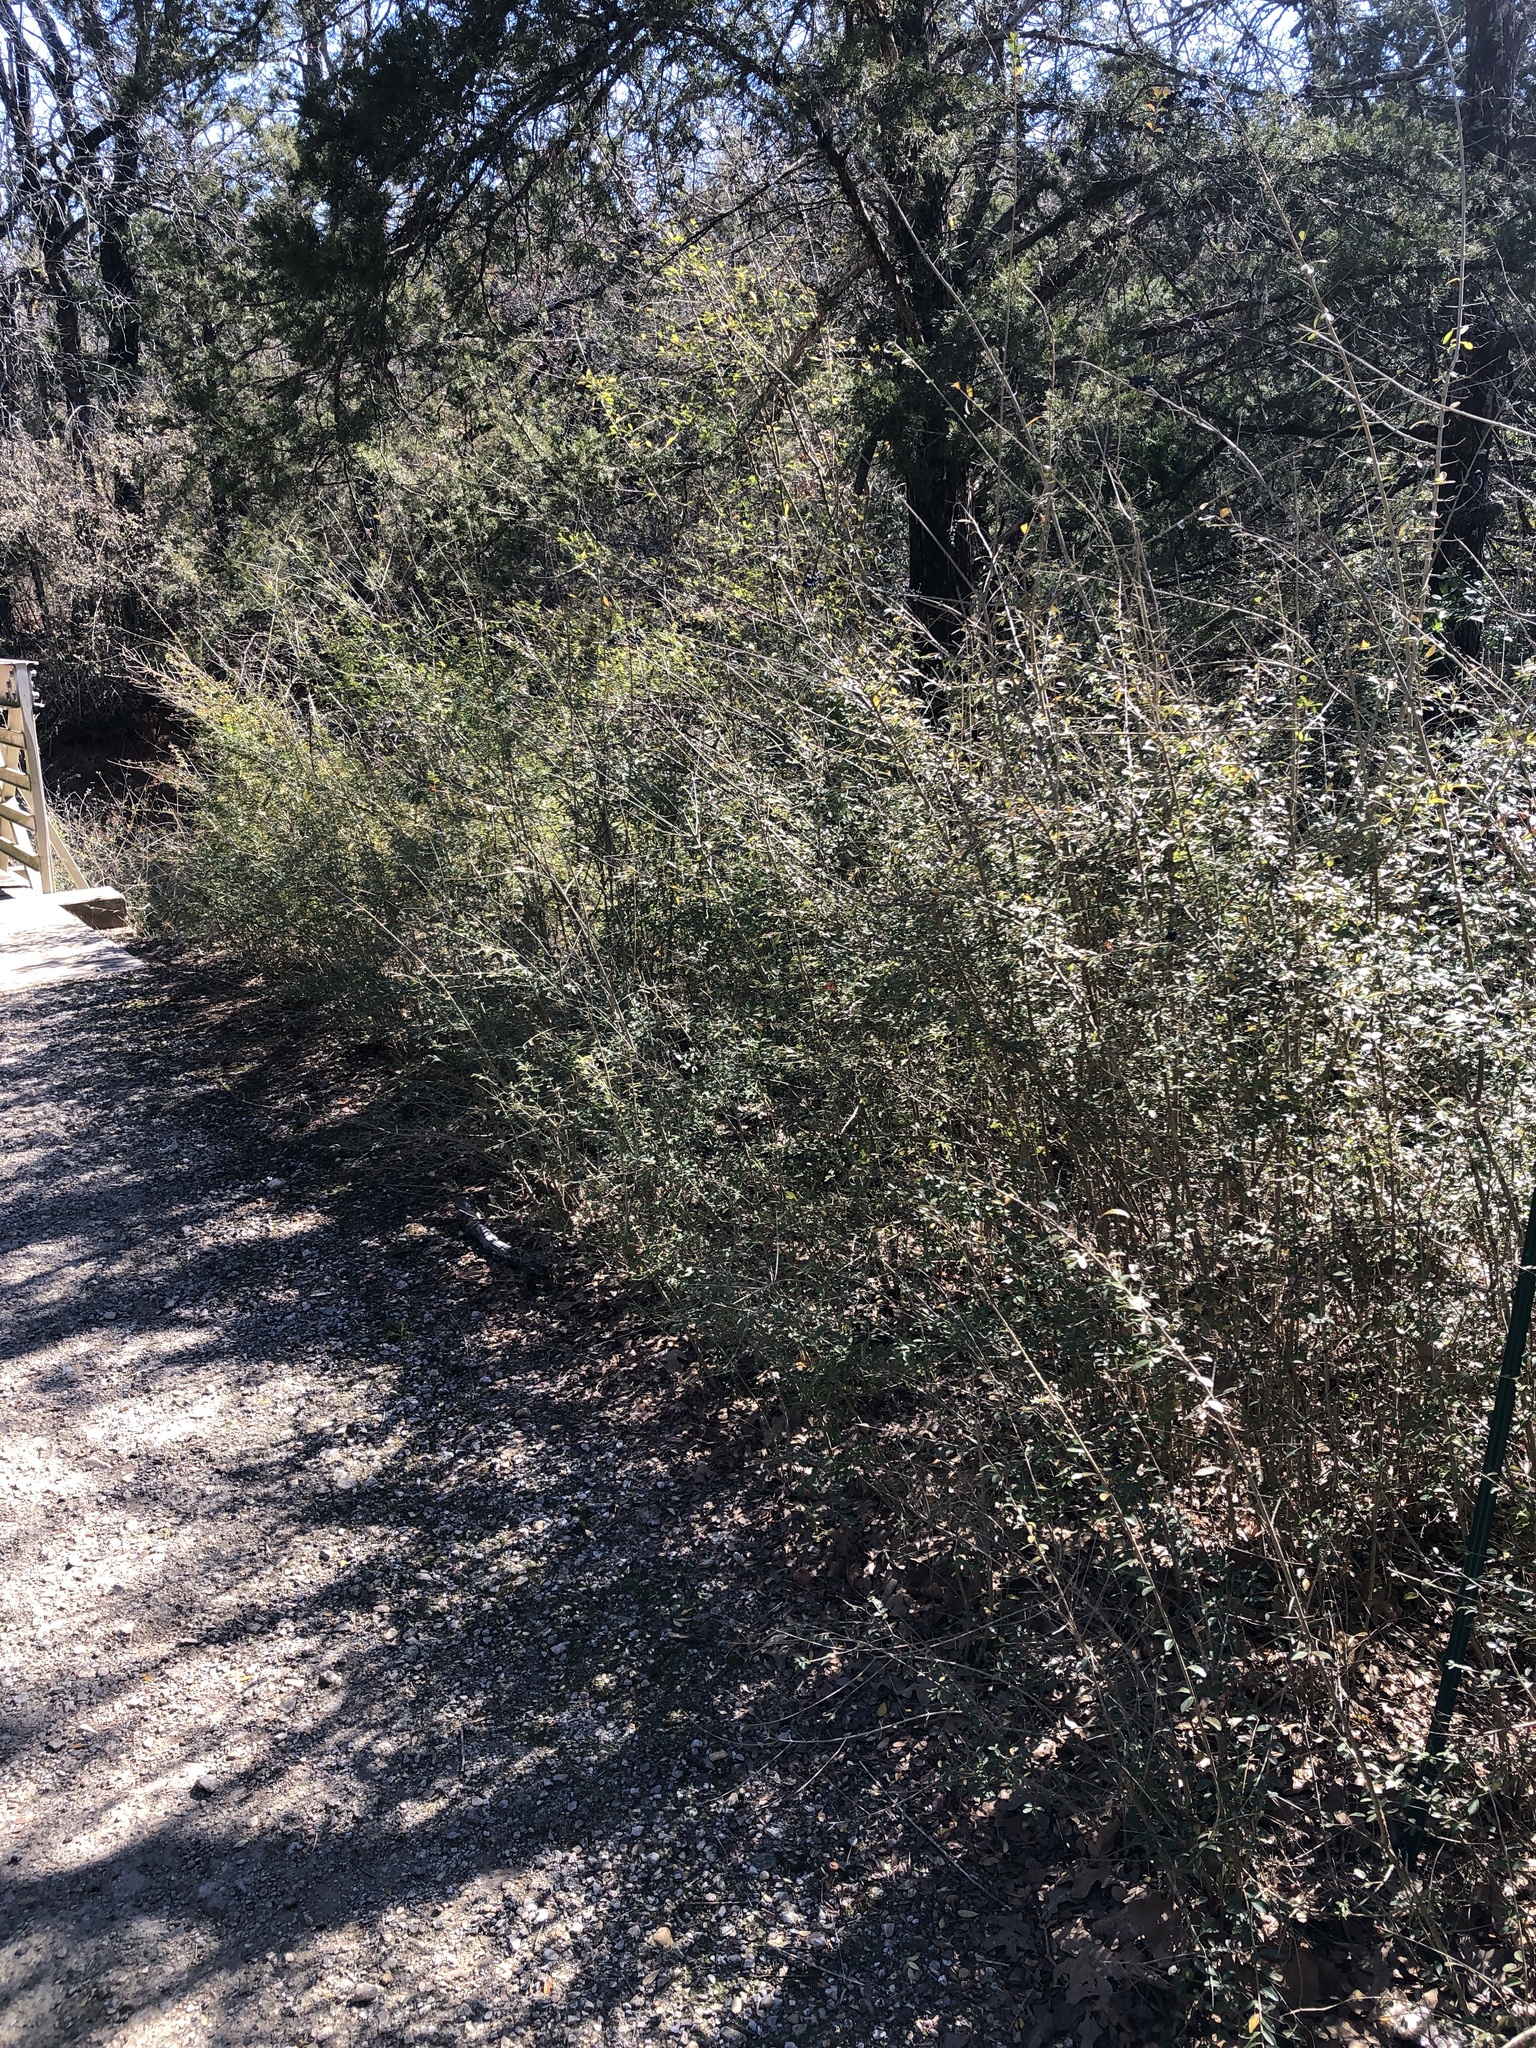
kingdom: Plantae
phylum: Tracheophyta
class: Magnoliopsida
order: Lamiales
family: Oleaceae
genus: Ligustrum
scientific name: Ligustrum quihoui
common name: Waxyleaf privet
